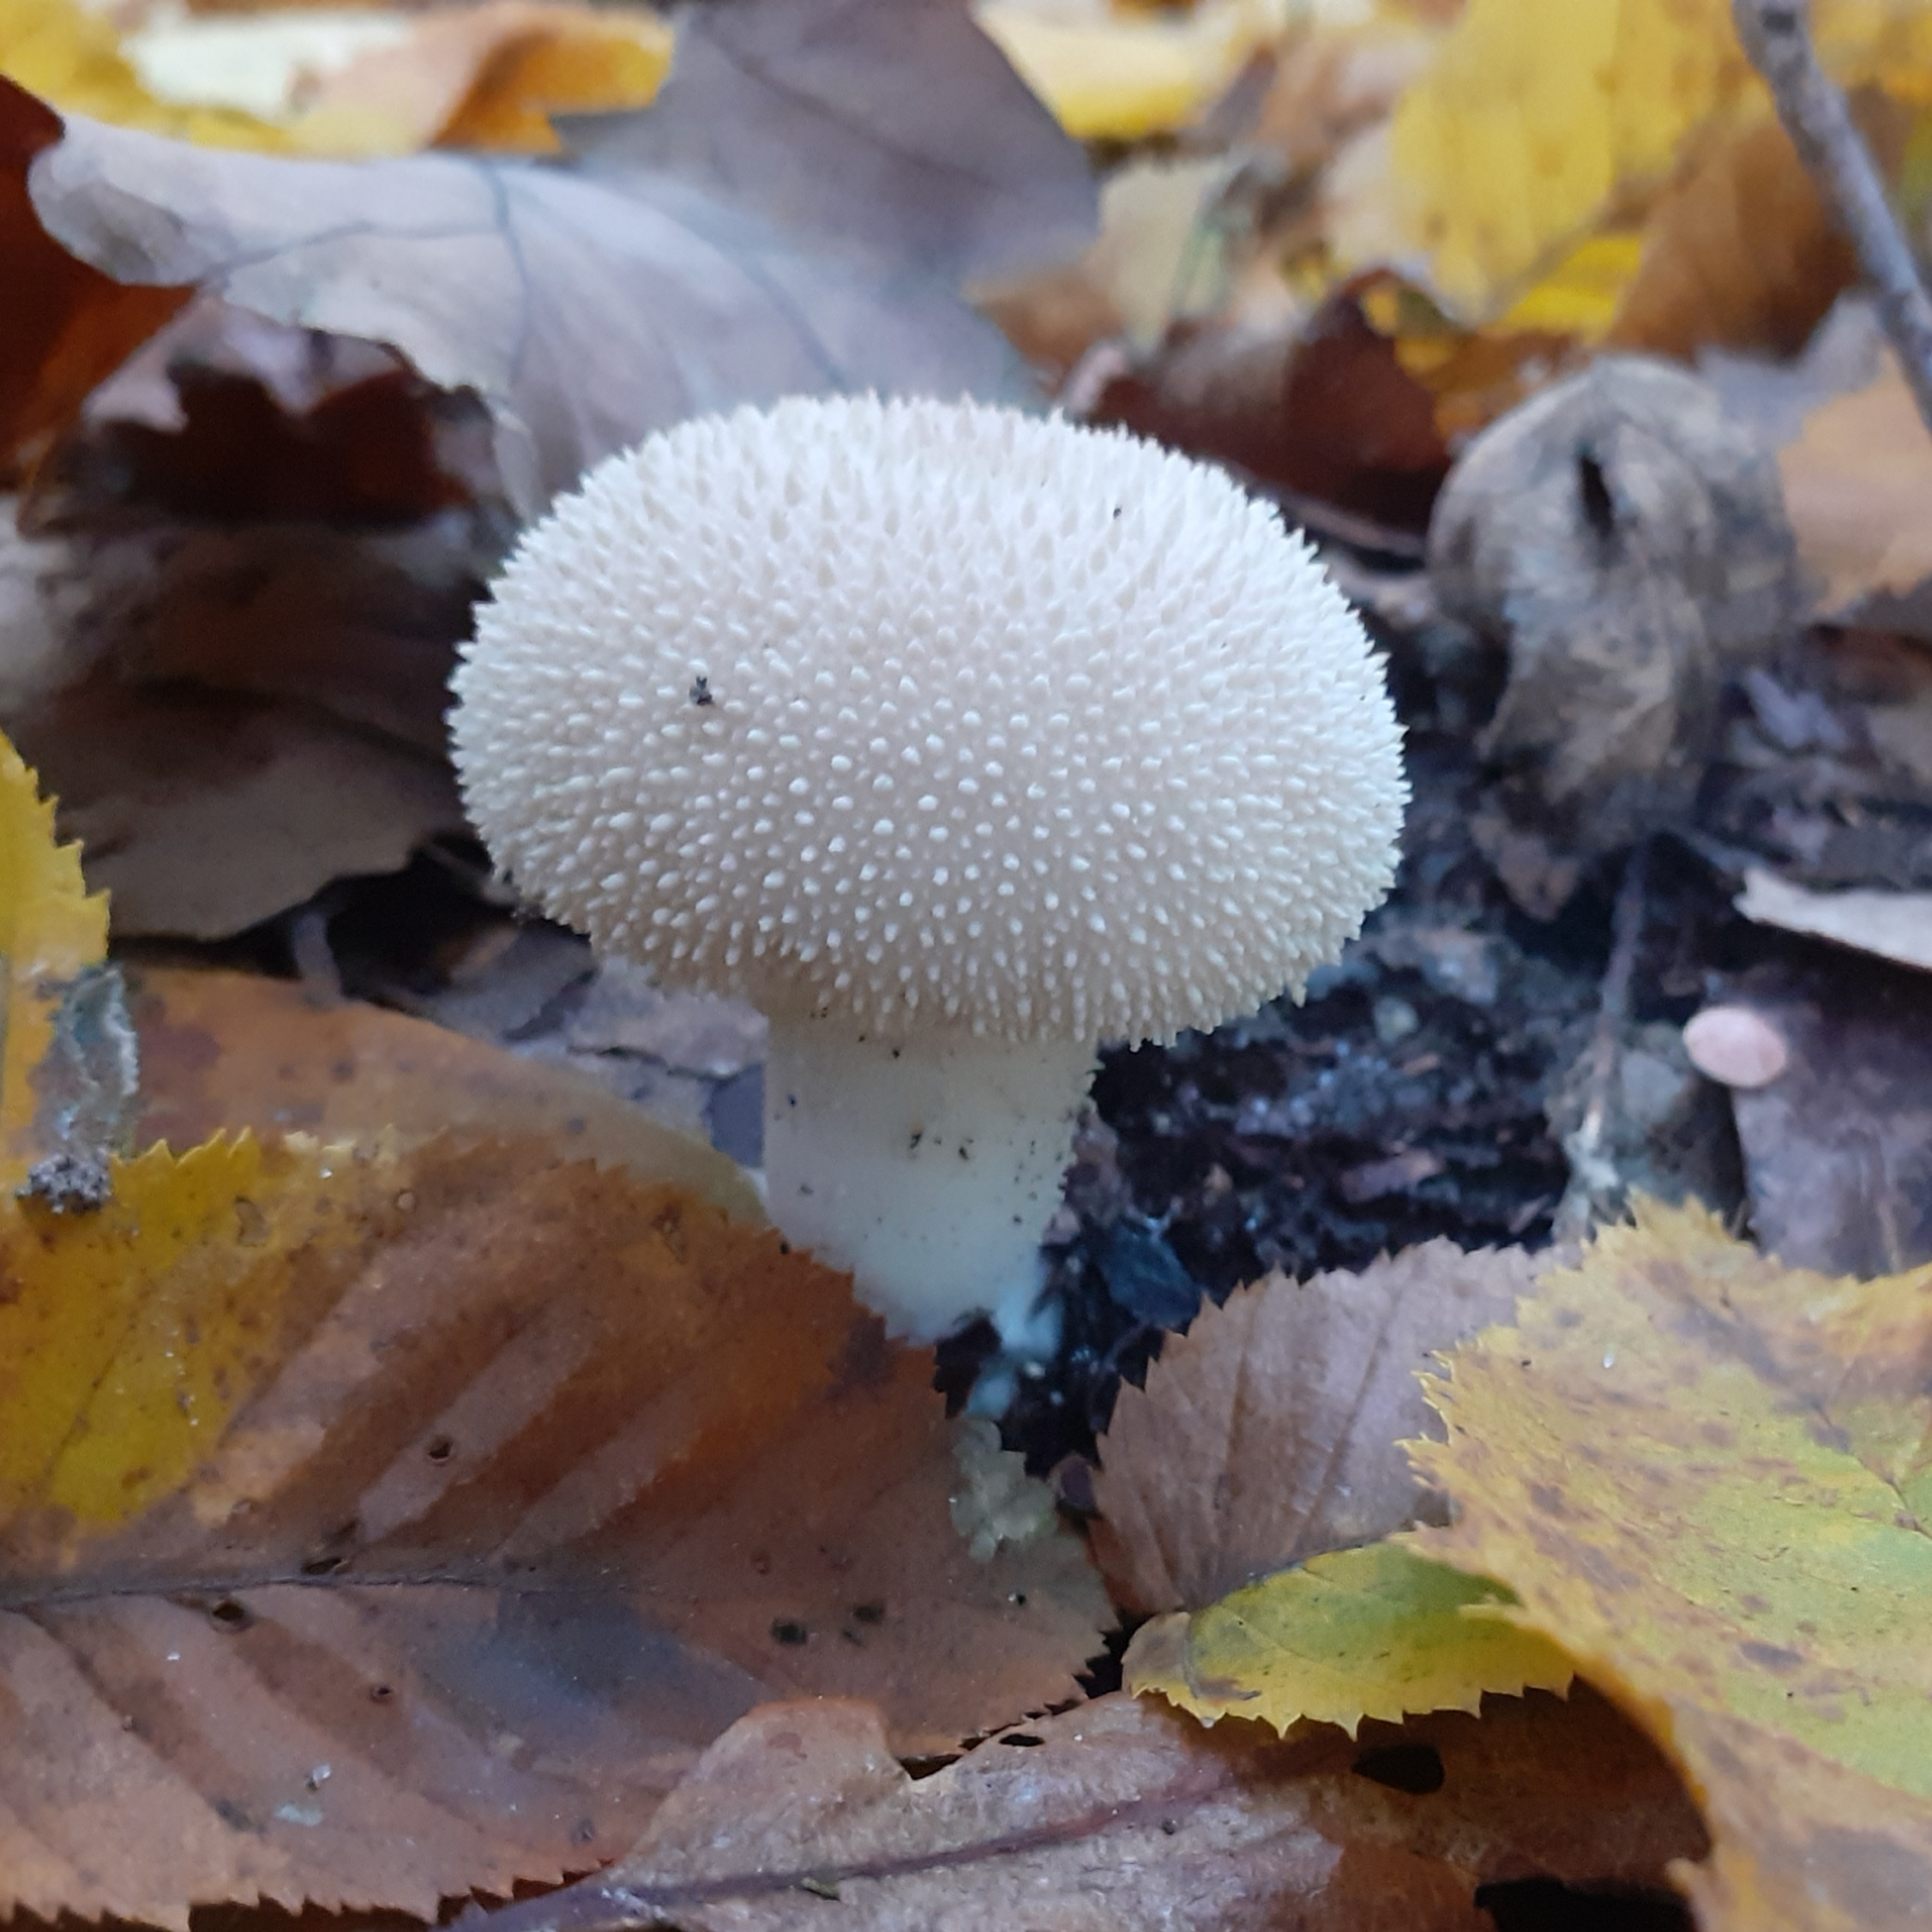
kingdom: Fungi
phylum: Basidiomycota
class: Agaricomycetes
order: Agaricales
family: Lycoperdaceae
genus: Lycoperdon
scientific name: Lycoperdon perlatum
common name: Common puffball
